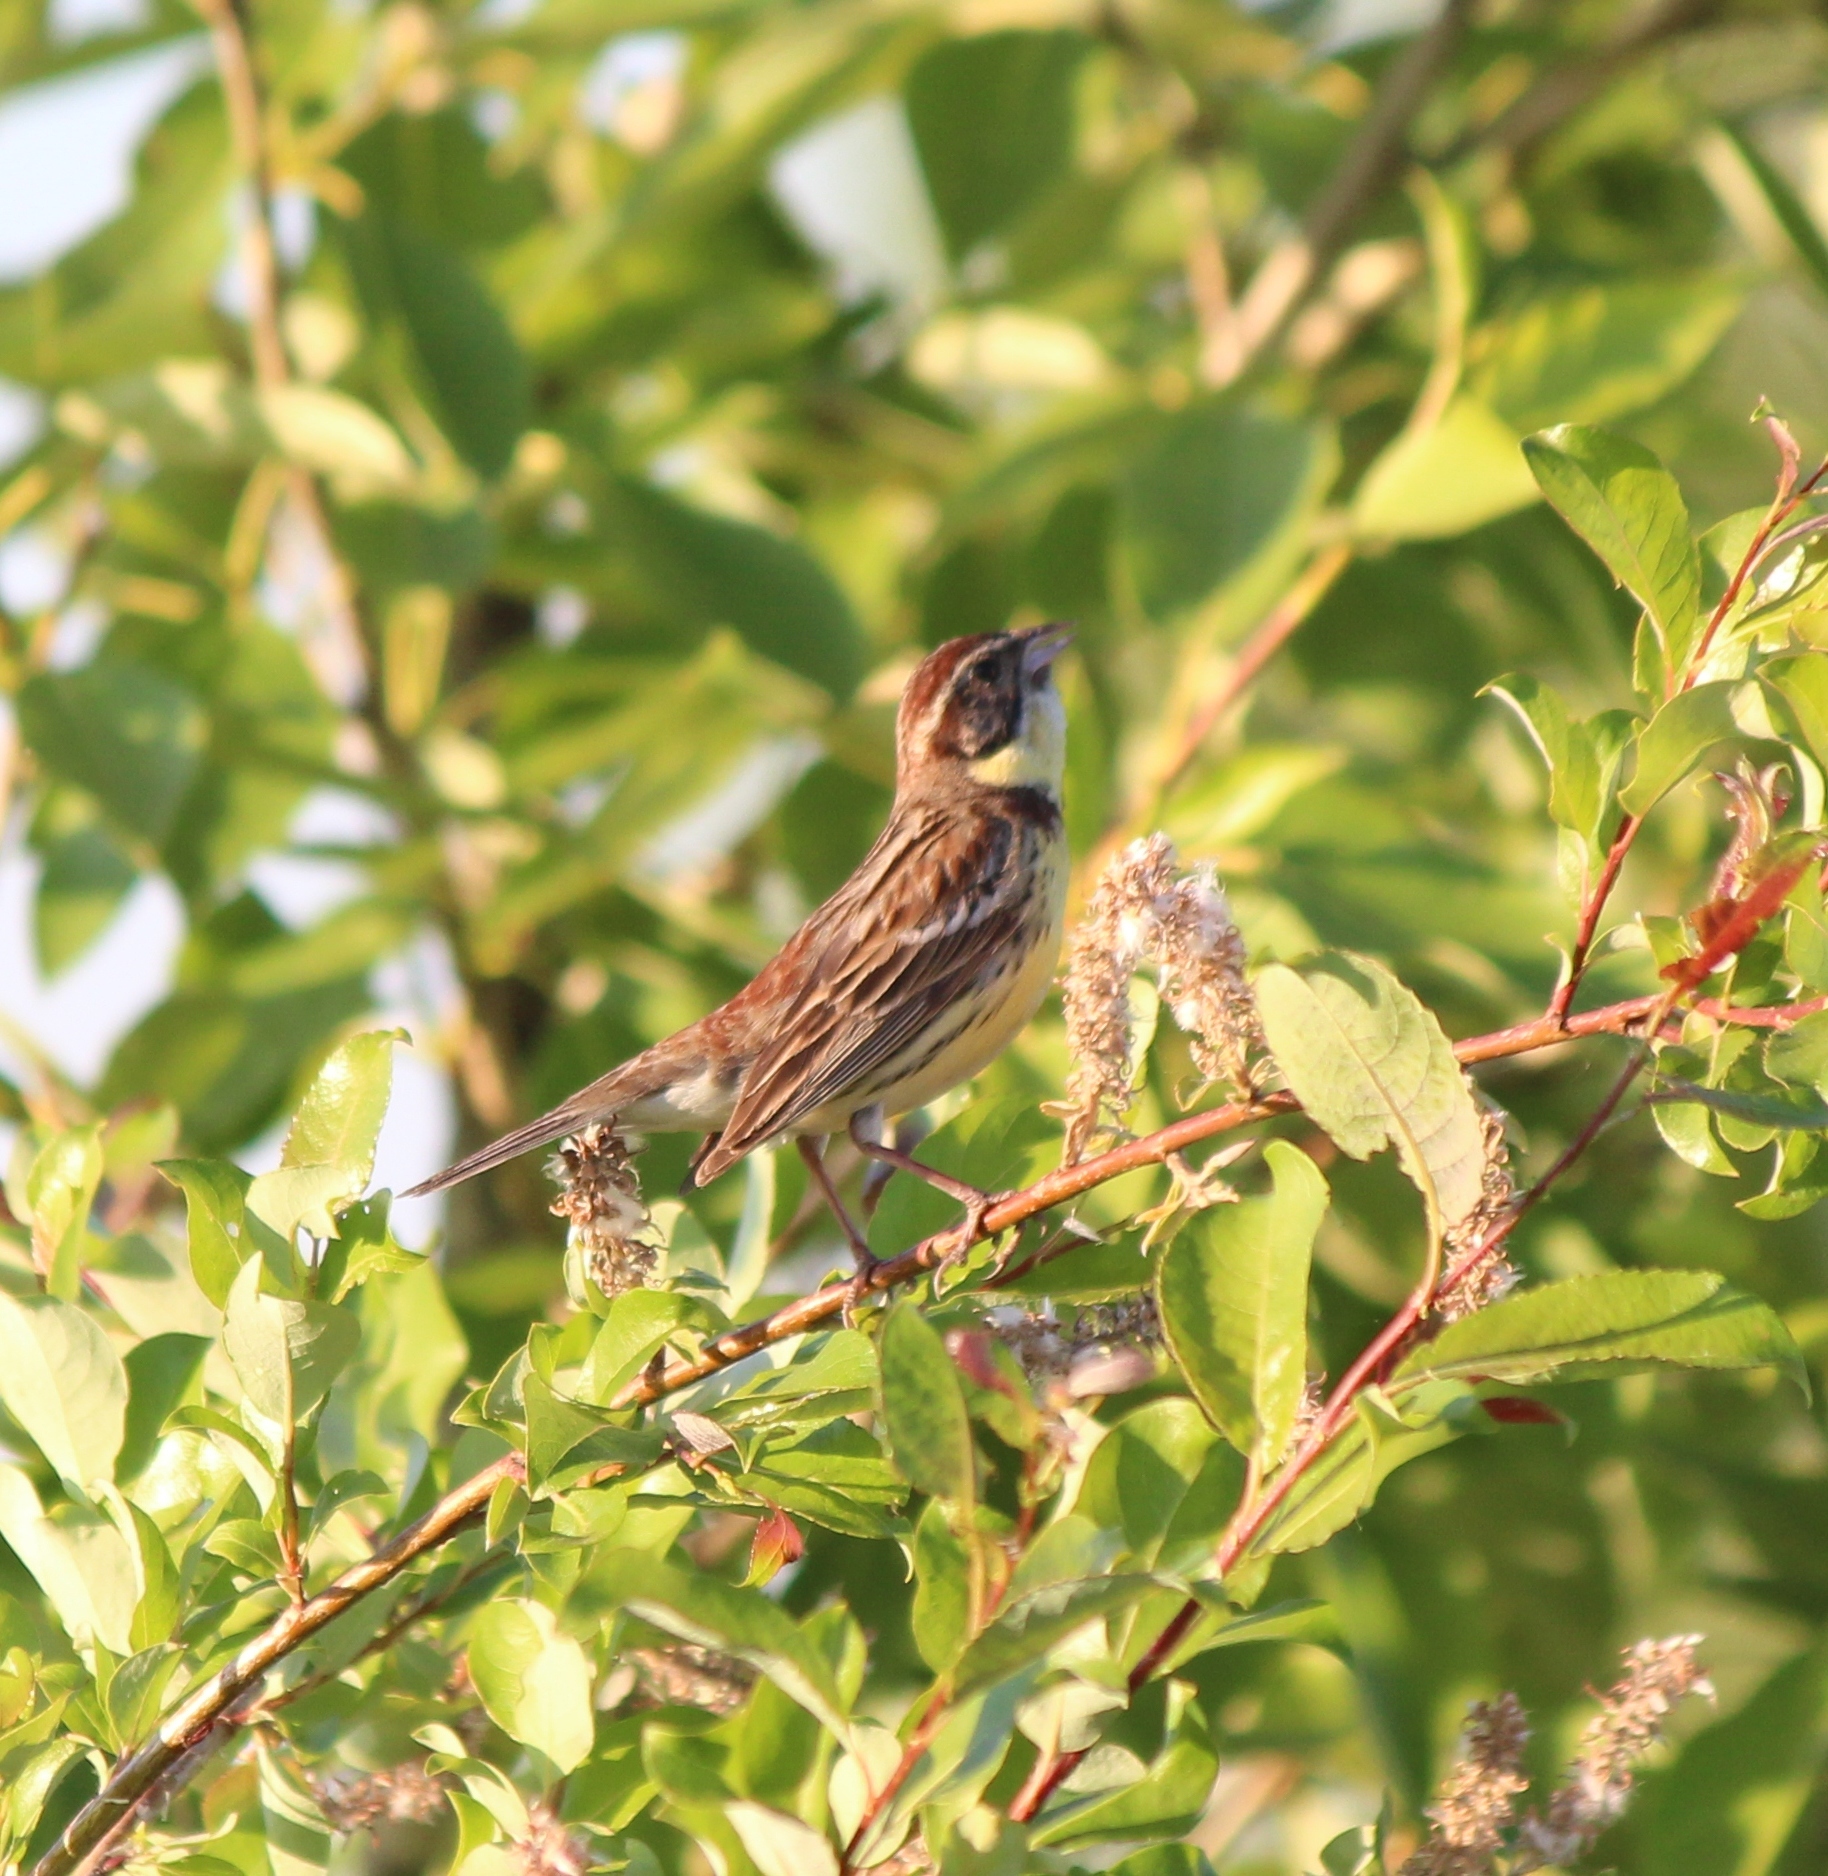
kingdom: Animalia
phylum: Chordata
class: Aves
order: Passeriformes
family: Emberizidae
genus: Emberiza
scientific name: Emberiza aureola
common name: Yellow-breasted bunting
